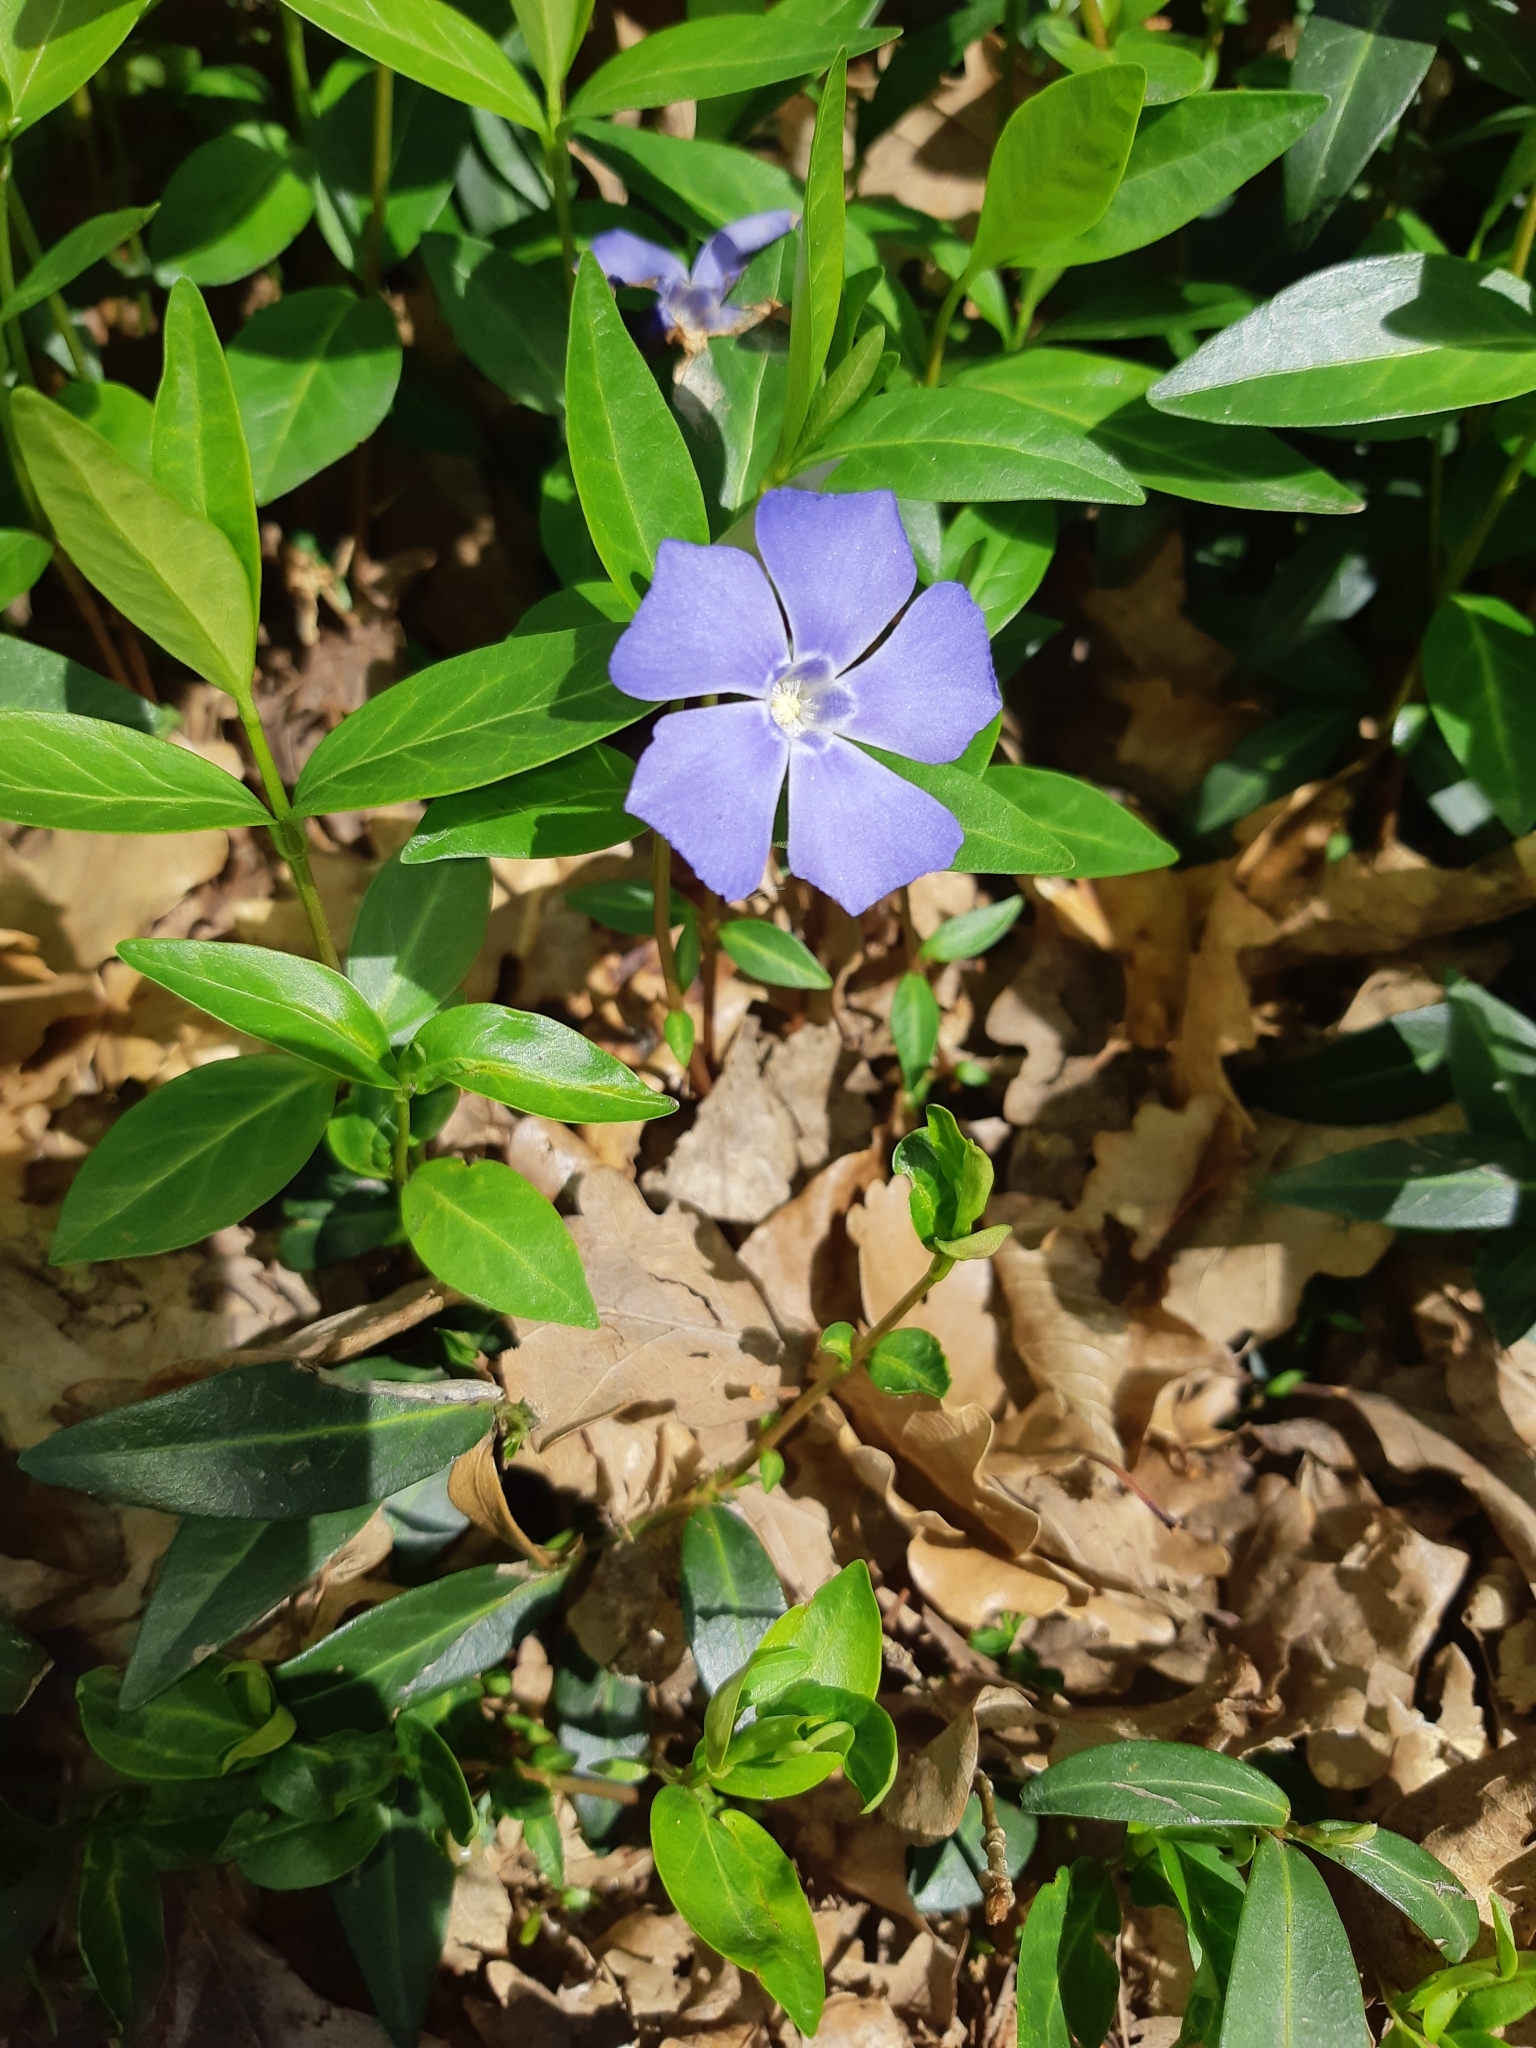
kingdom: Plantae
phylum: Tracheophyta
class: Magnoliopsida
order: Gentianales
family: Apocynaceae
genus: Vinca
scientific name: Vinca major
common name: Greater periwinkle
